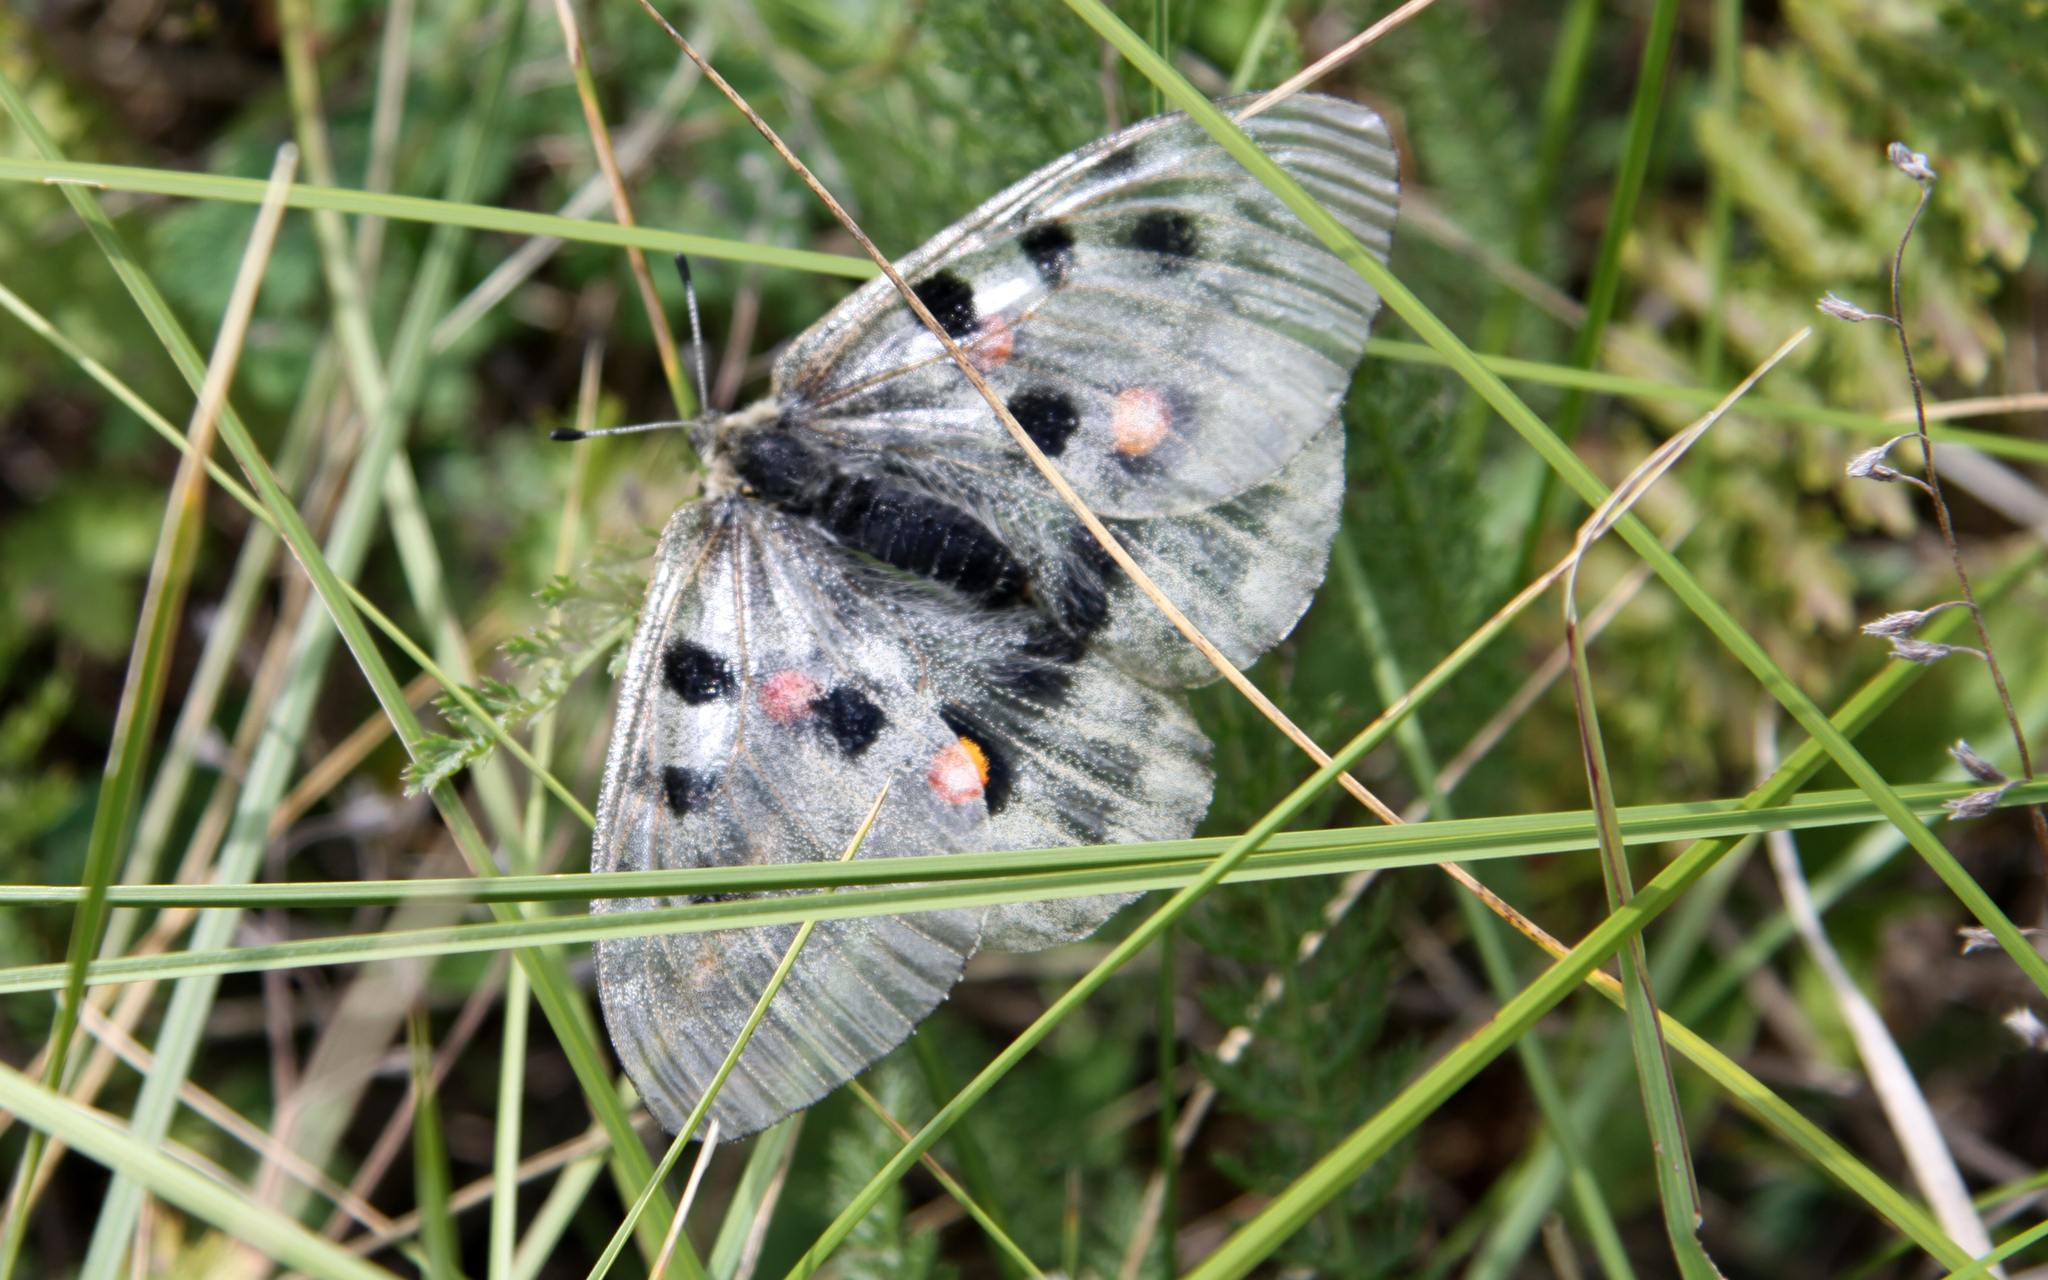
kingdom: Animalia
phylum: Arthropoda
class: Insecta
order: Lepidoptera
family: Papilionidae
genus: Parnassius
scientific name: Parnassius apollo
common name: Apollo
